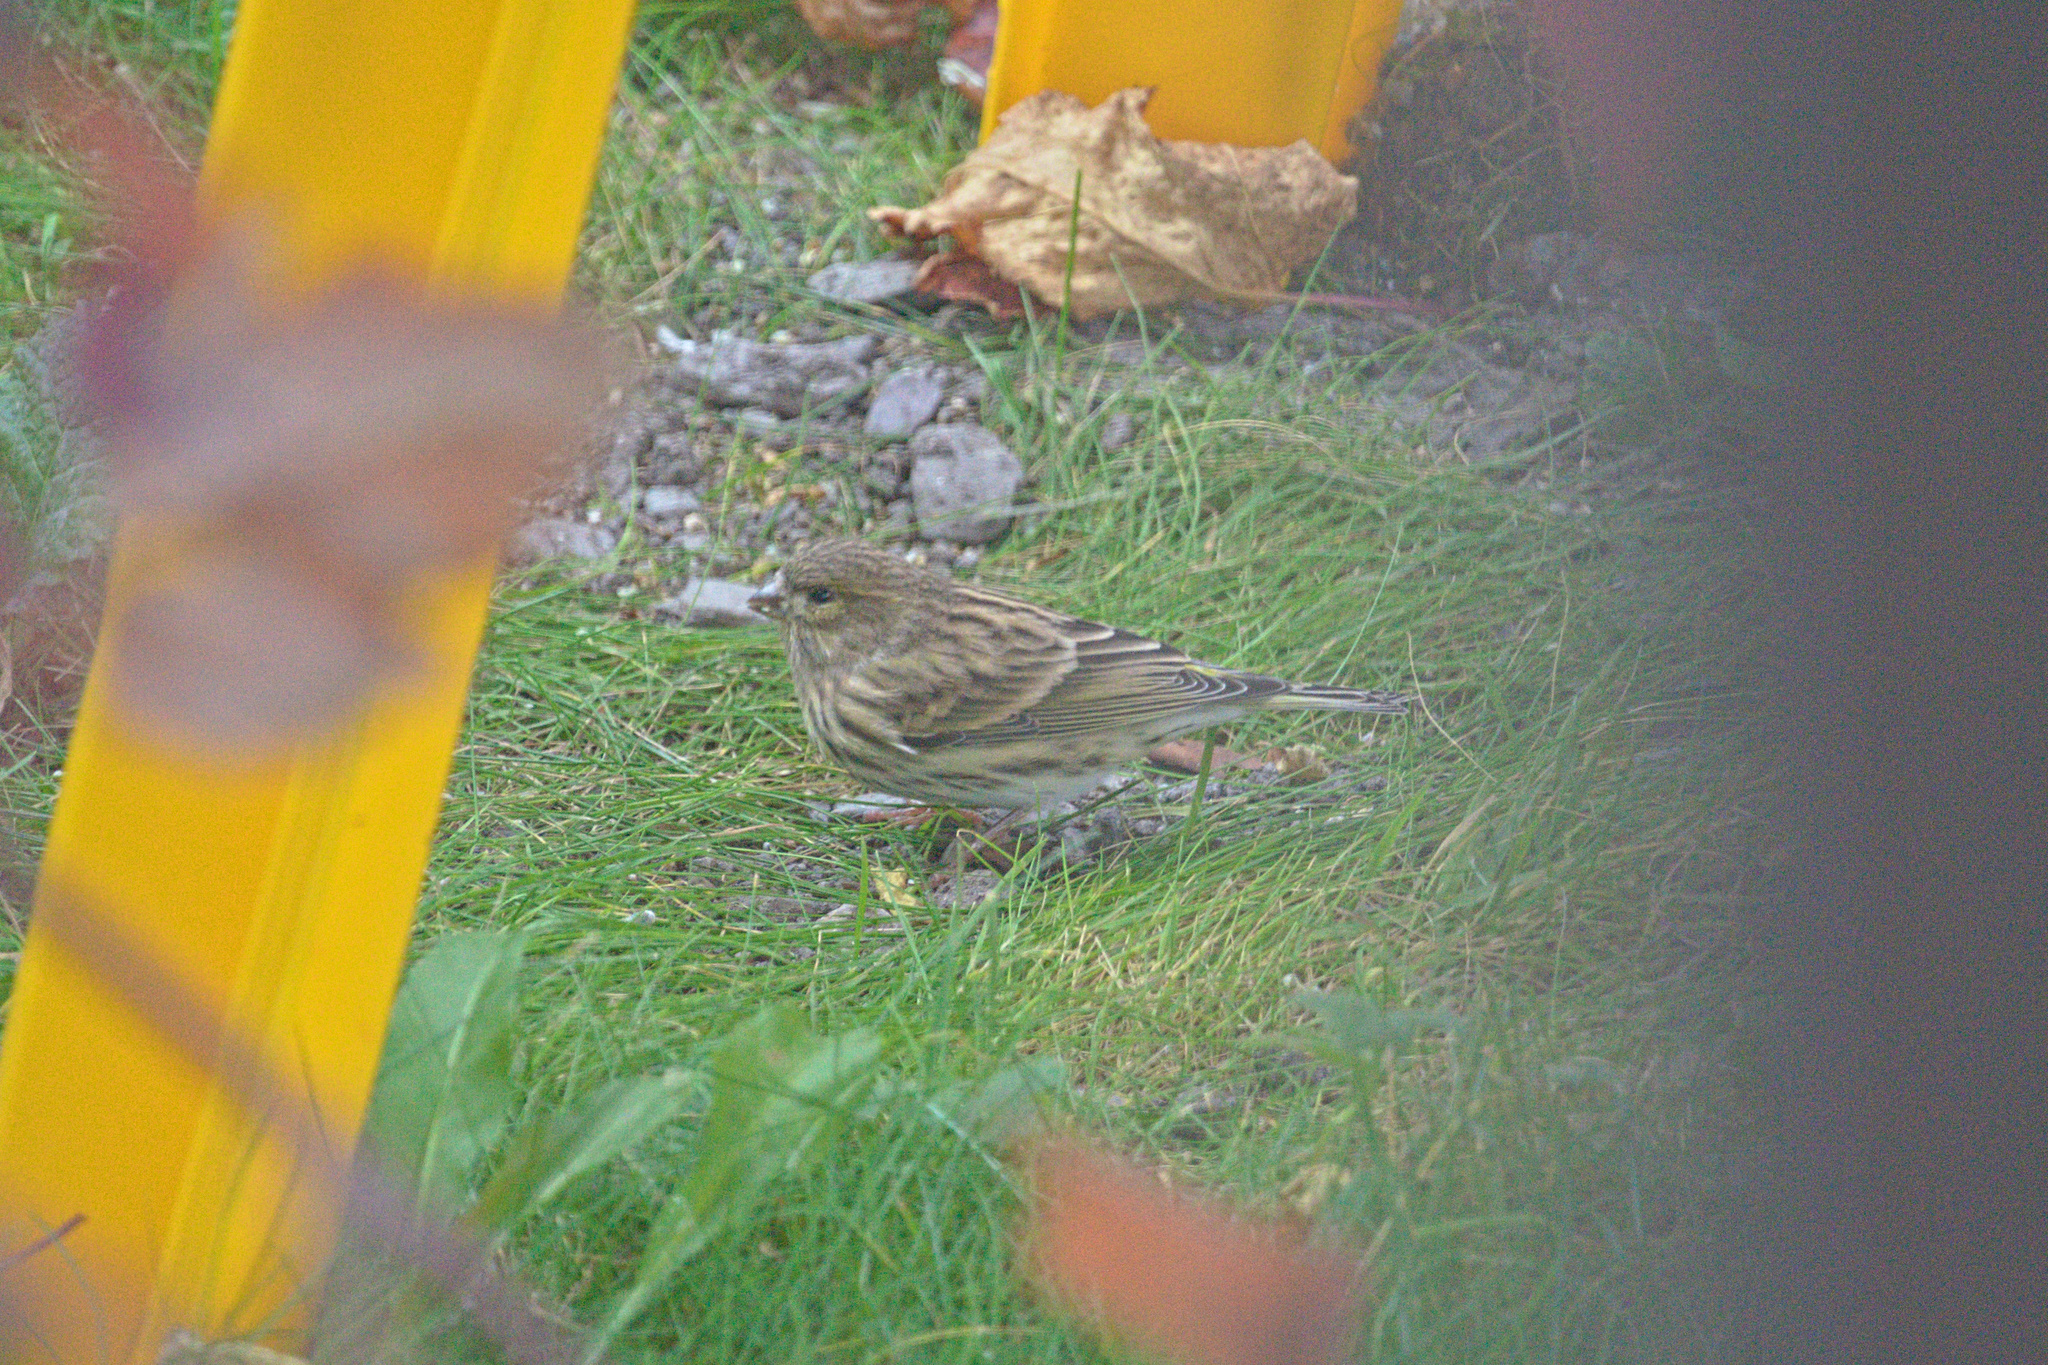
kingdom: Animalia
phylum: Chordata
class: Aves
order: Passeriformes
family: Fringillidae
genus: Serinus
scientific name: Serinus serinus
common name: European serin
